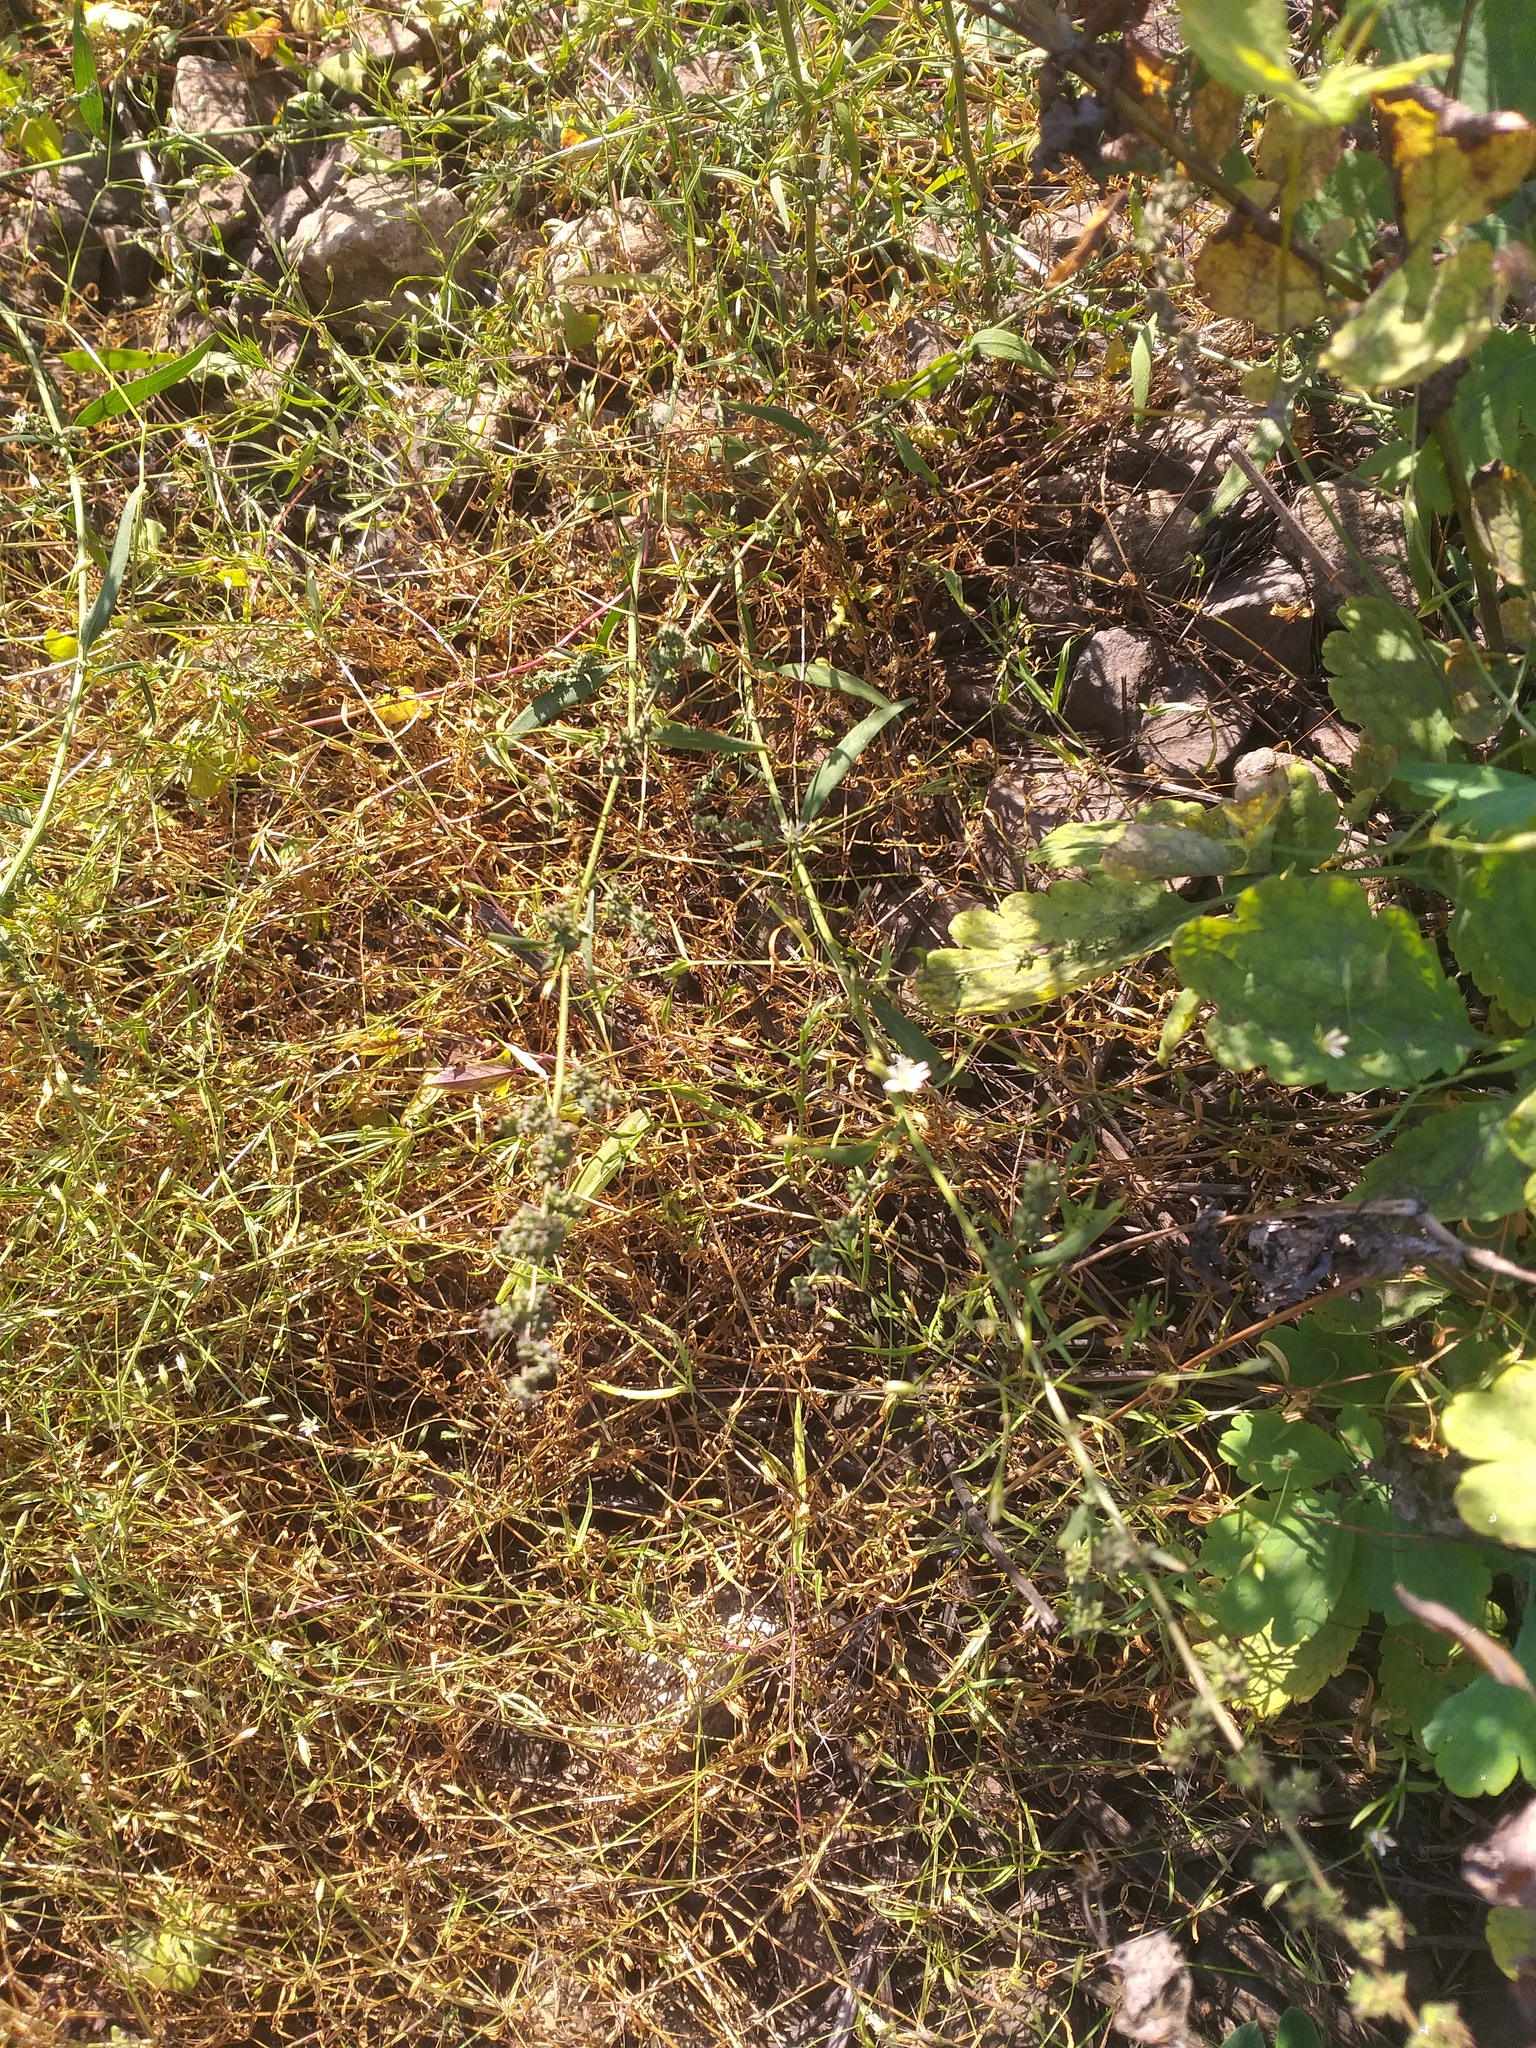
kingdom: Plantae
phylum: Tracheophyta
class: Magnoliopsida
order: Caryophyllales
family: Amaranthaceae
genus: Atriplex
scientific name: Atriplex patula
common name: Common orache
